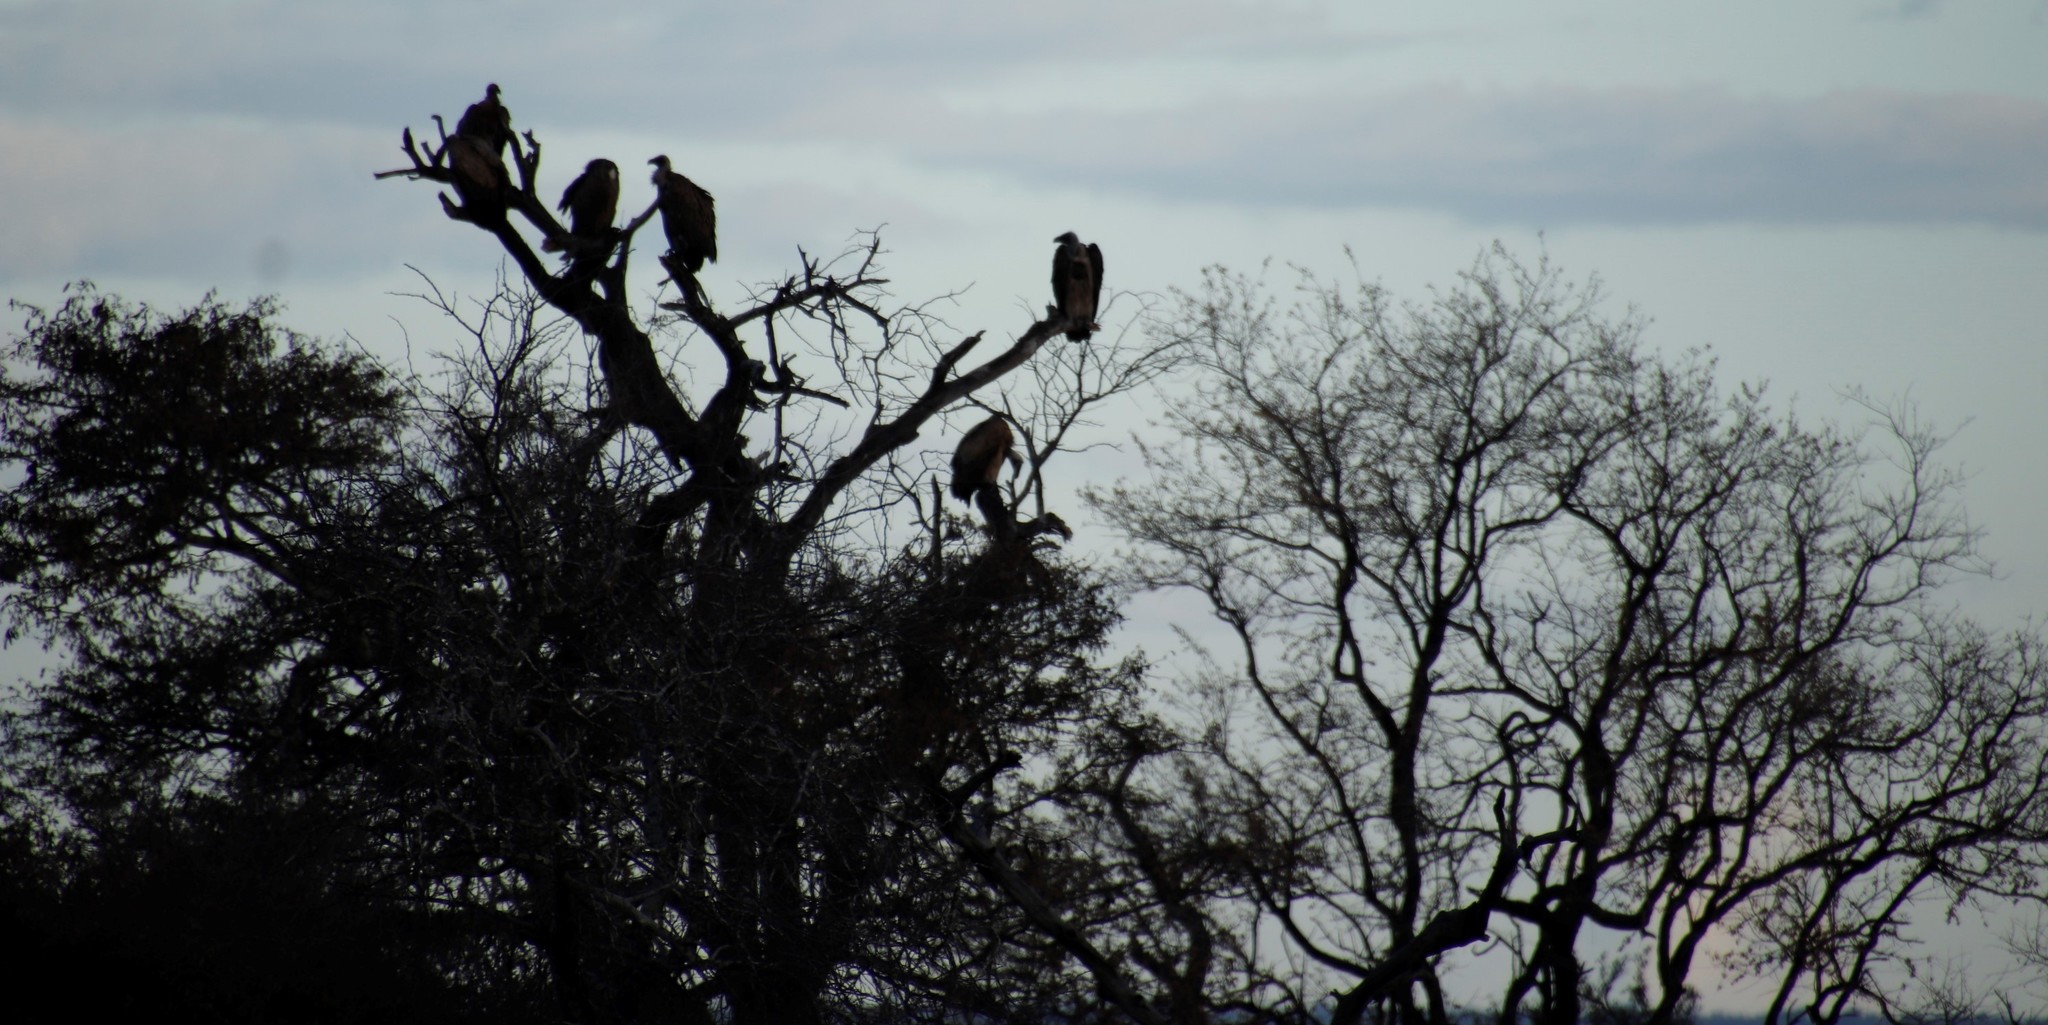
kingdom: Animalia
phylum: Chordata
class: Aves
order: Accipitriformes
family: Accipitridae
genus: Gyps
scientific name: Gyps africanus
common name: White-backed vulture
